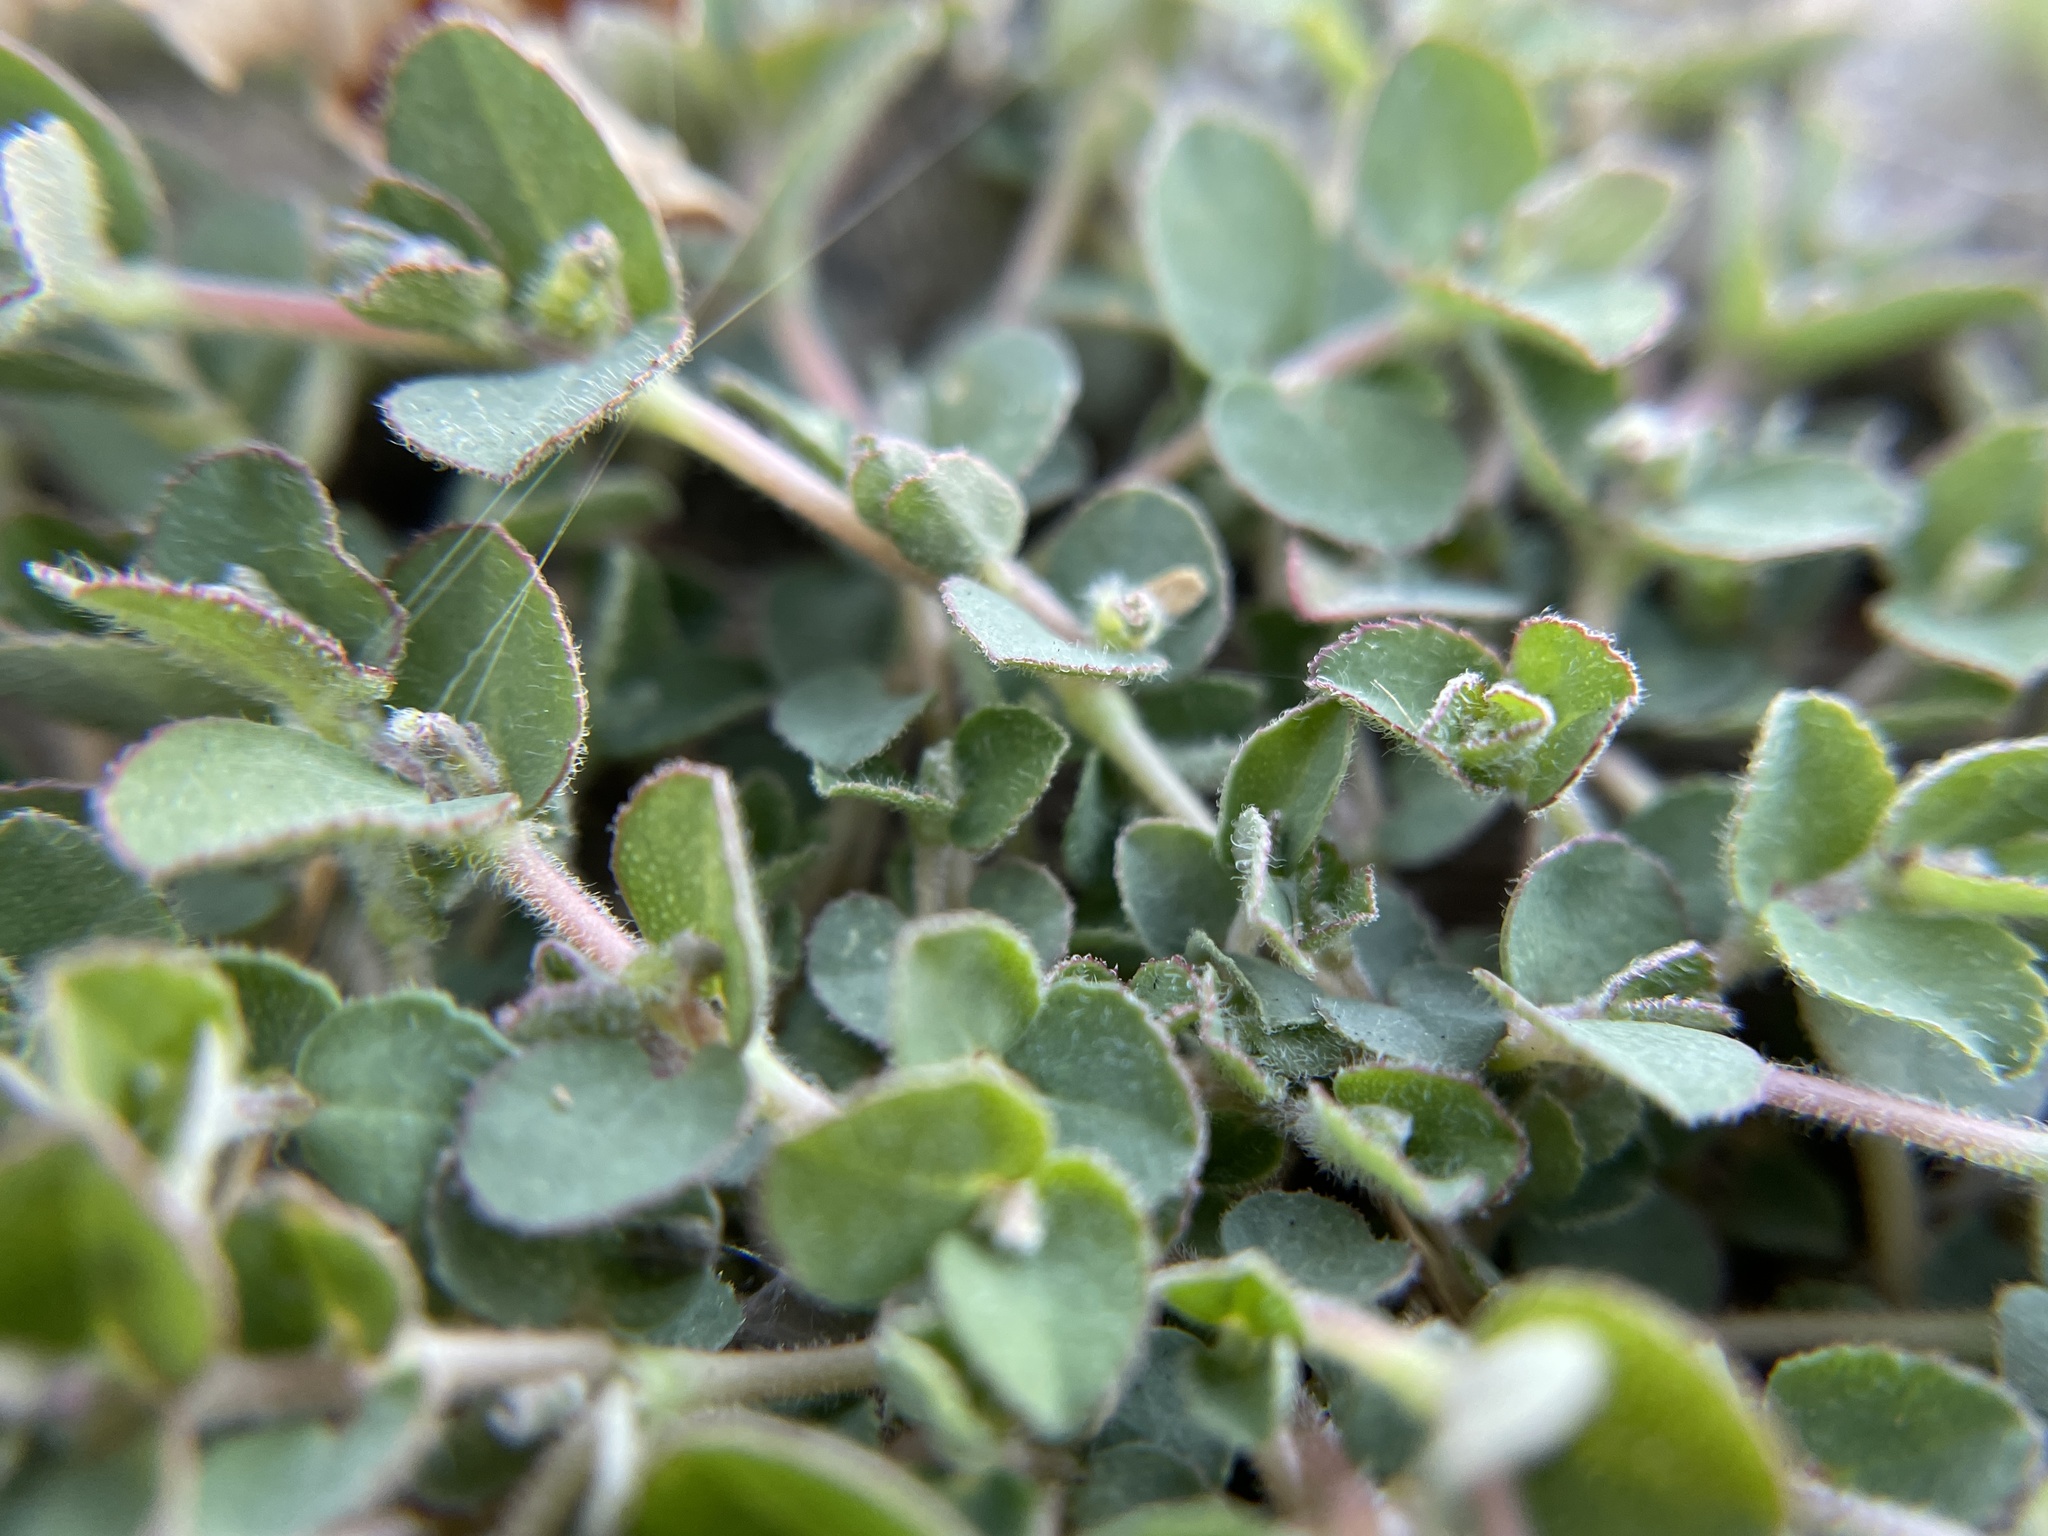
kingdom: Plantae
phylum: Tracheophyta
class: Magnoliopsida
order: Malpighiales
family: Euphorbiaceae
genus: Euphorbia
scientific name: Euphorbia prostrata
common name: Prostrate sandmat
